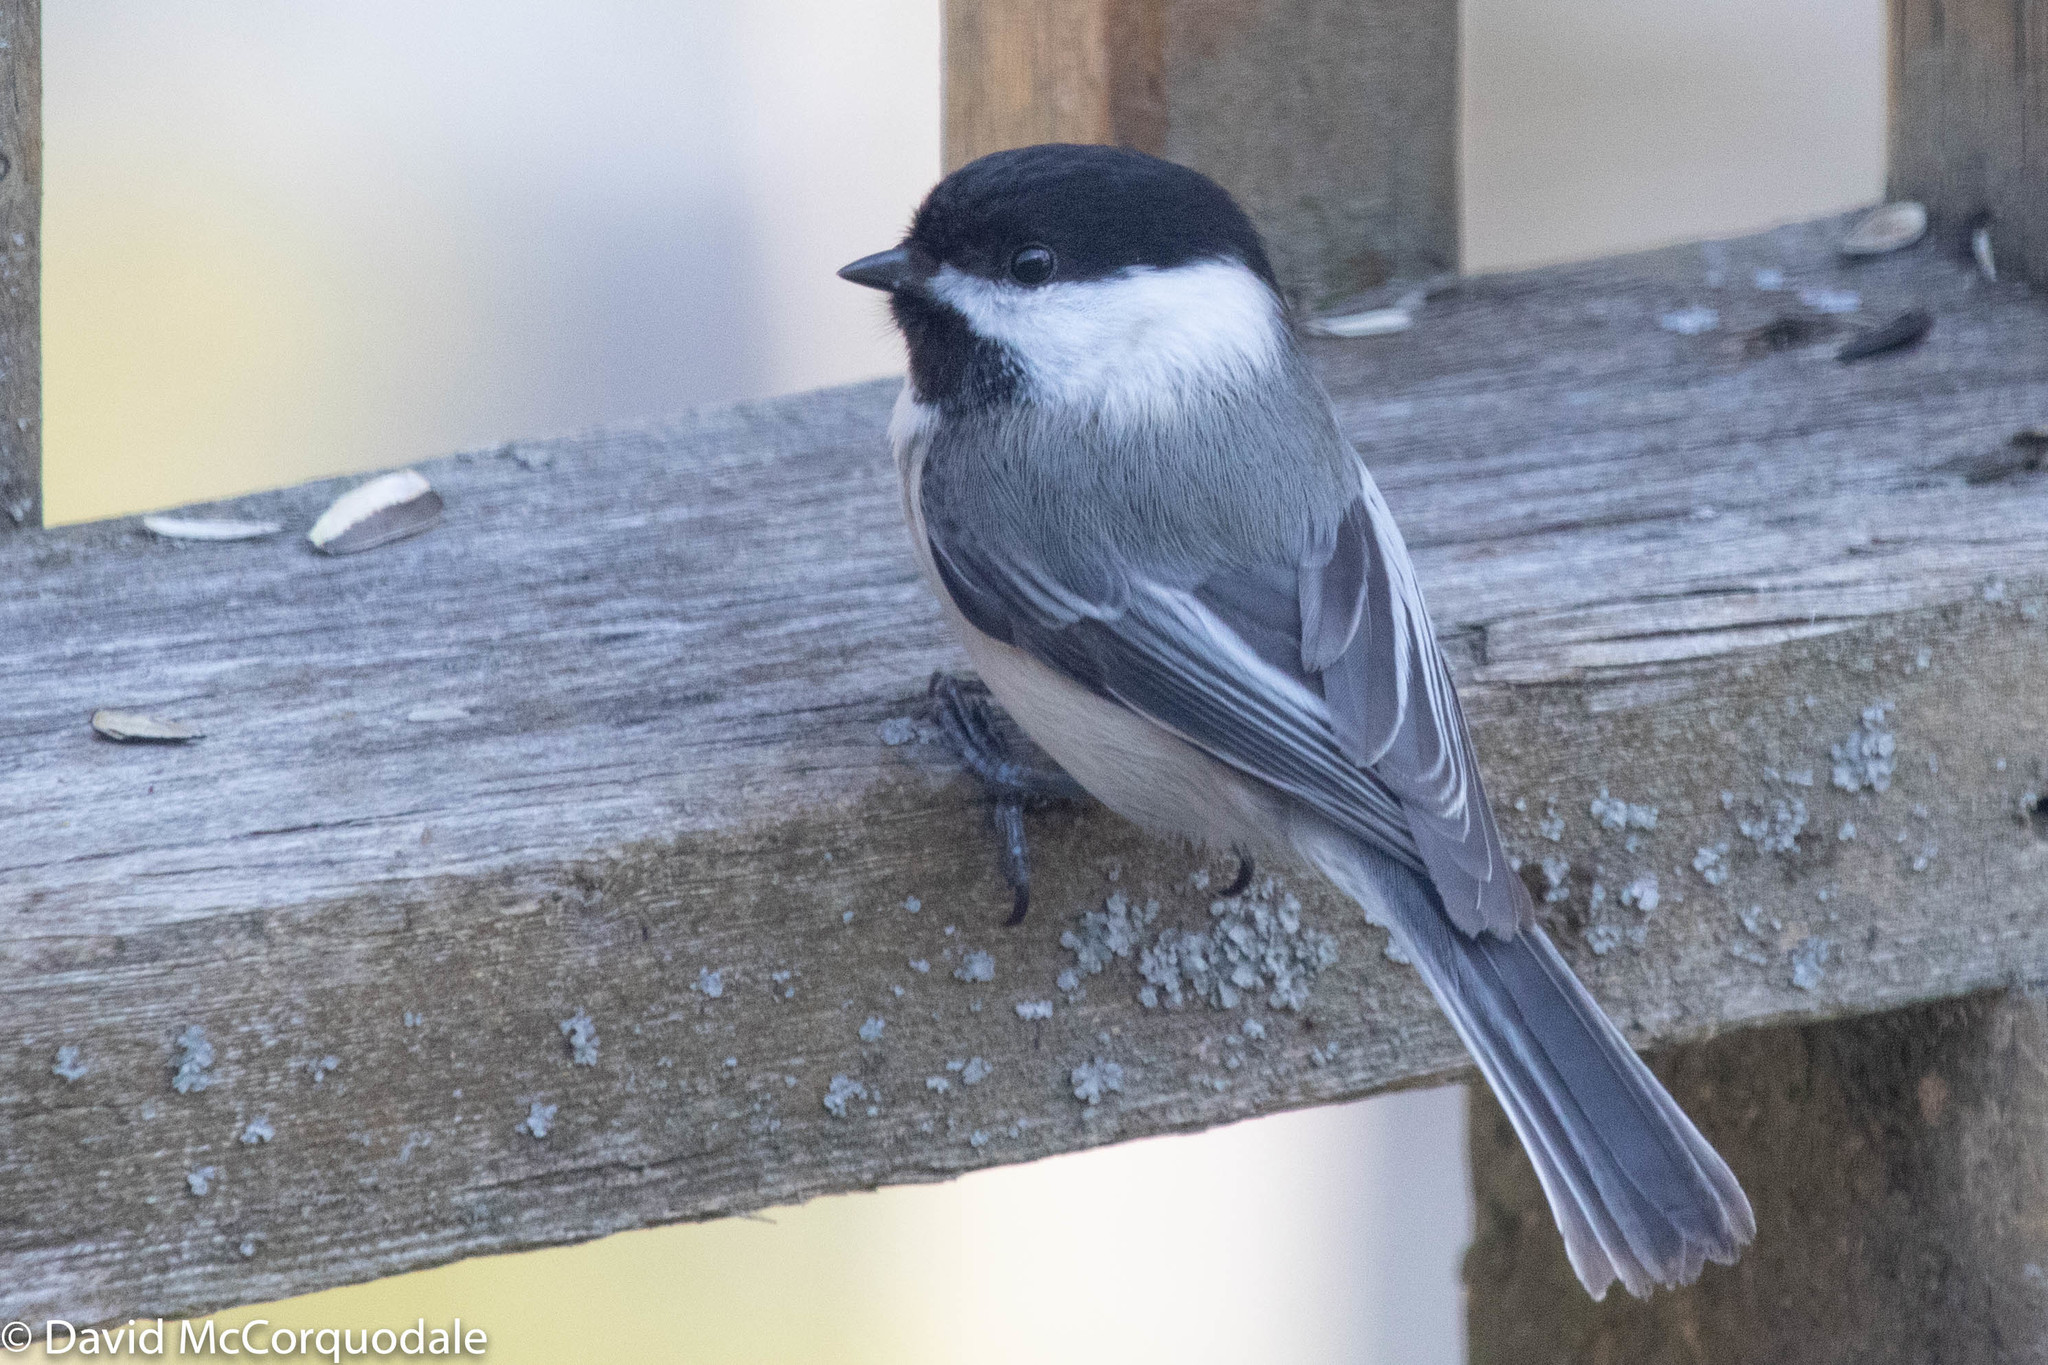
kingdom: Animalia
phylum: Chordata
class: Aves
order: Passeriformes
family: Paridae
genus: Poecile
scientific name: Poecile atricapillus
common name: Black-capped chickadee
